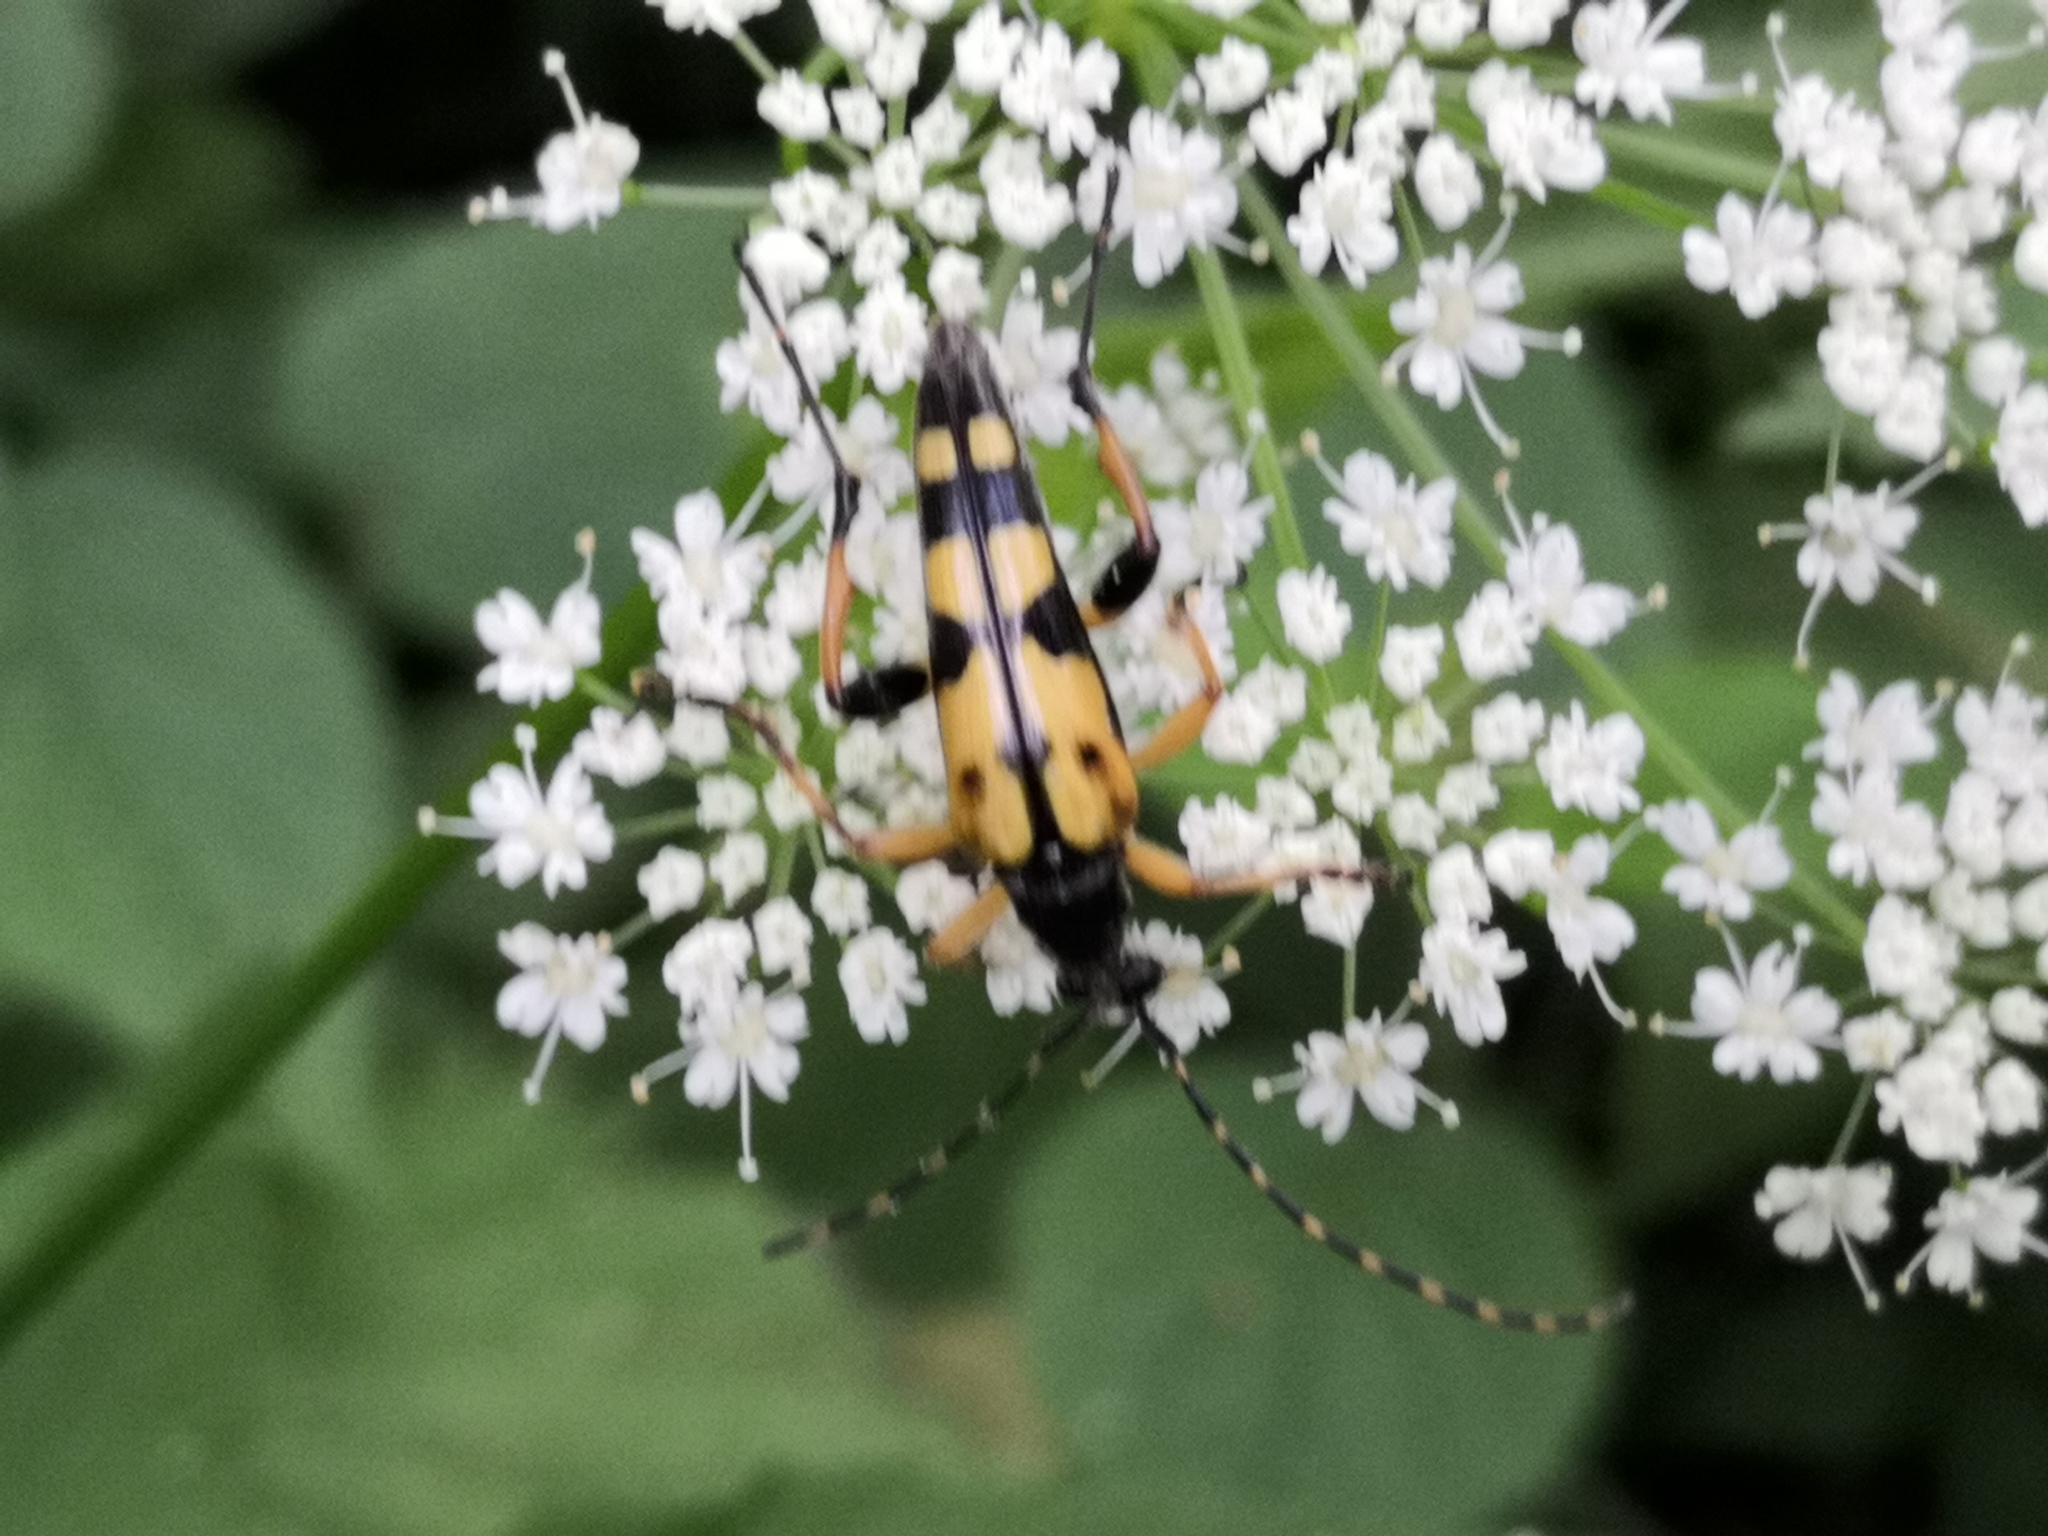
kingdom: Animalia
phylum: Arthropoda
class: Insecta
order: Coleoptera
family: Cerambycidae
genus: Rutpela
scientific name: Rutpela maculata
